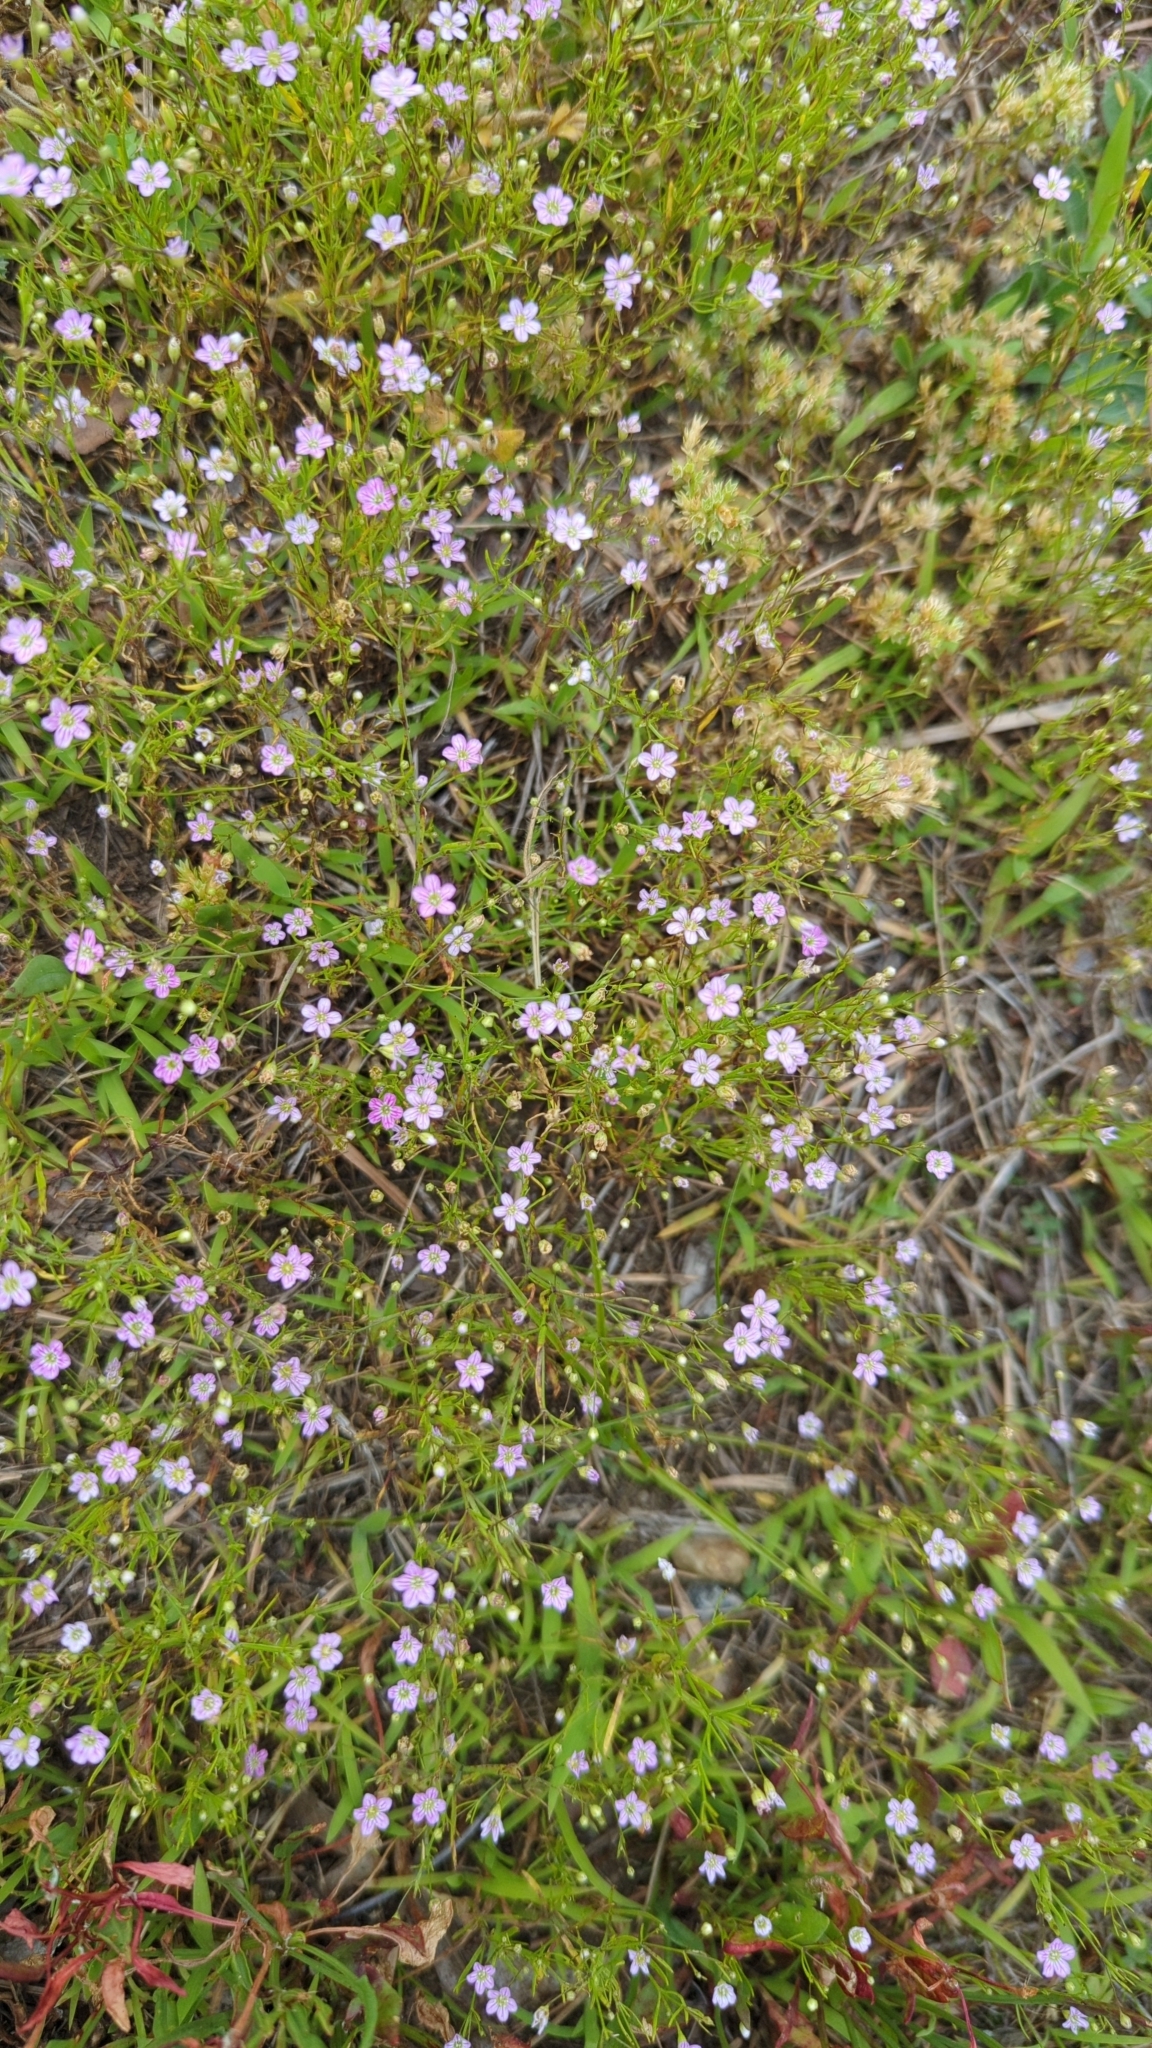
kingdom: Plantae
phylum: Tracheophyta
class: Magnoliopsida
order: Caryophyllales
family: Caryophyllaceae
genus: Psammophiliella
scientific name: Psammophiliella muralis
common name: Cushion baby's-breath
